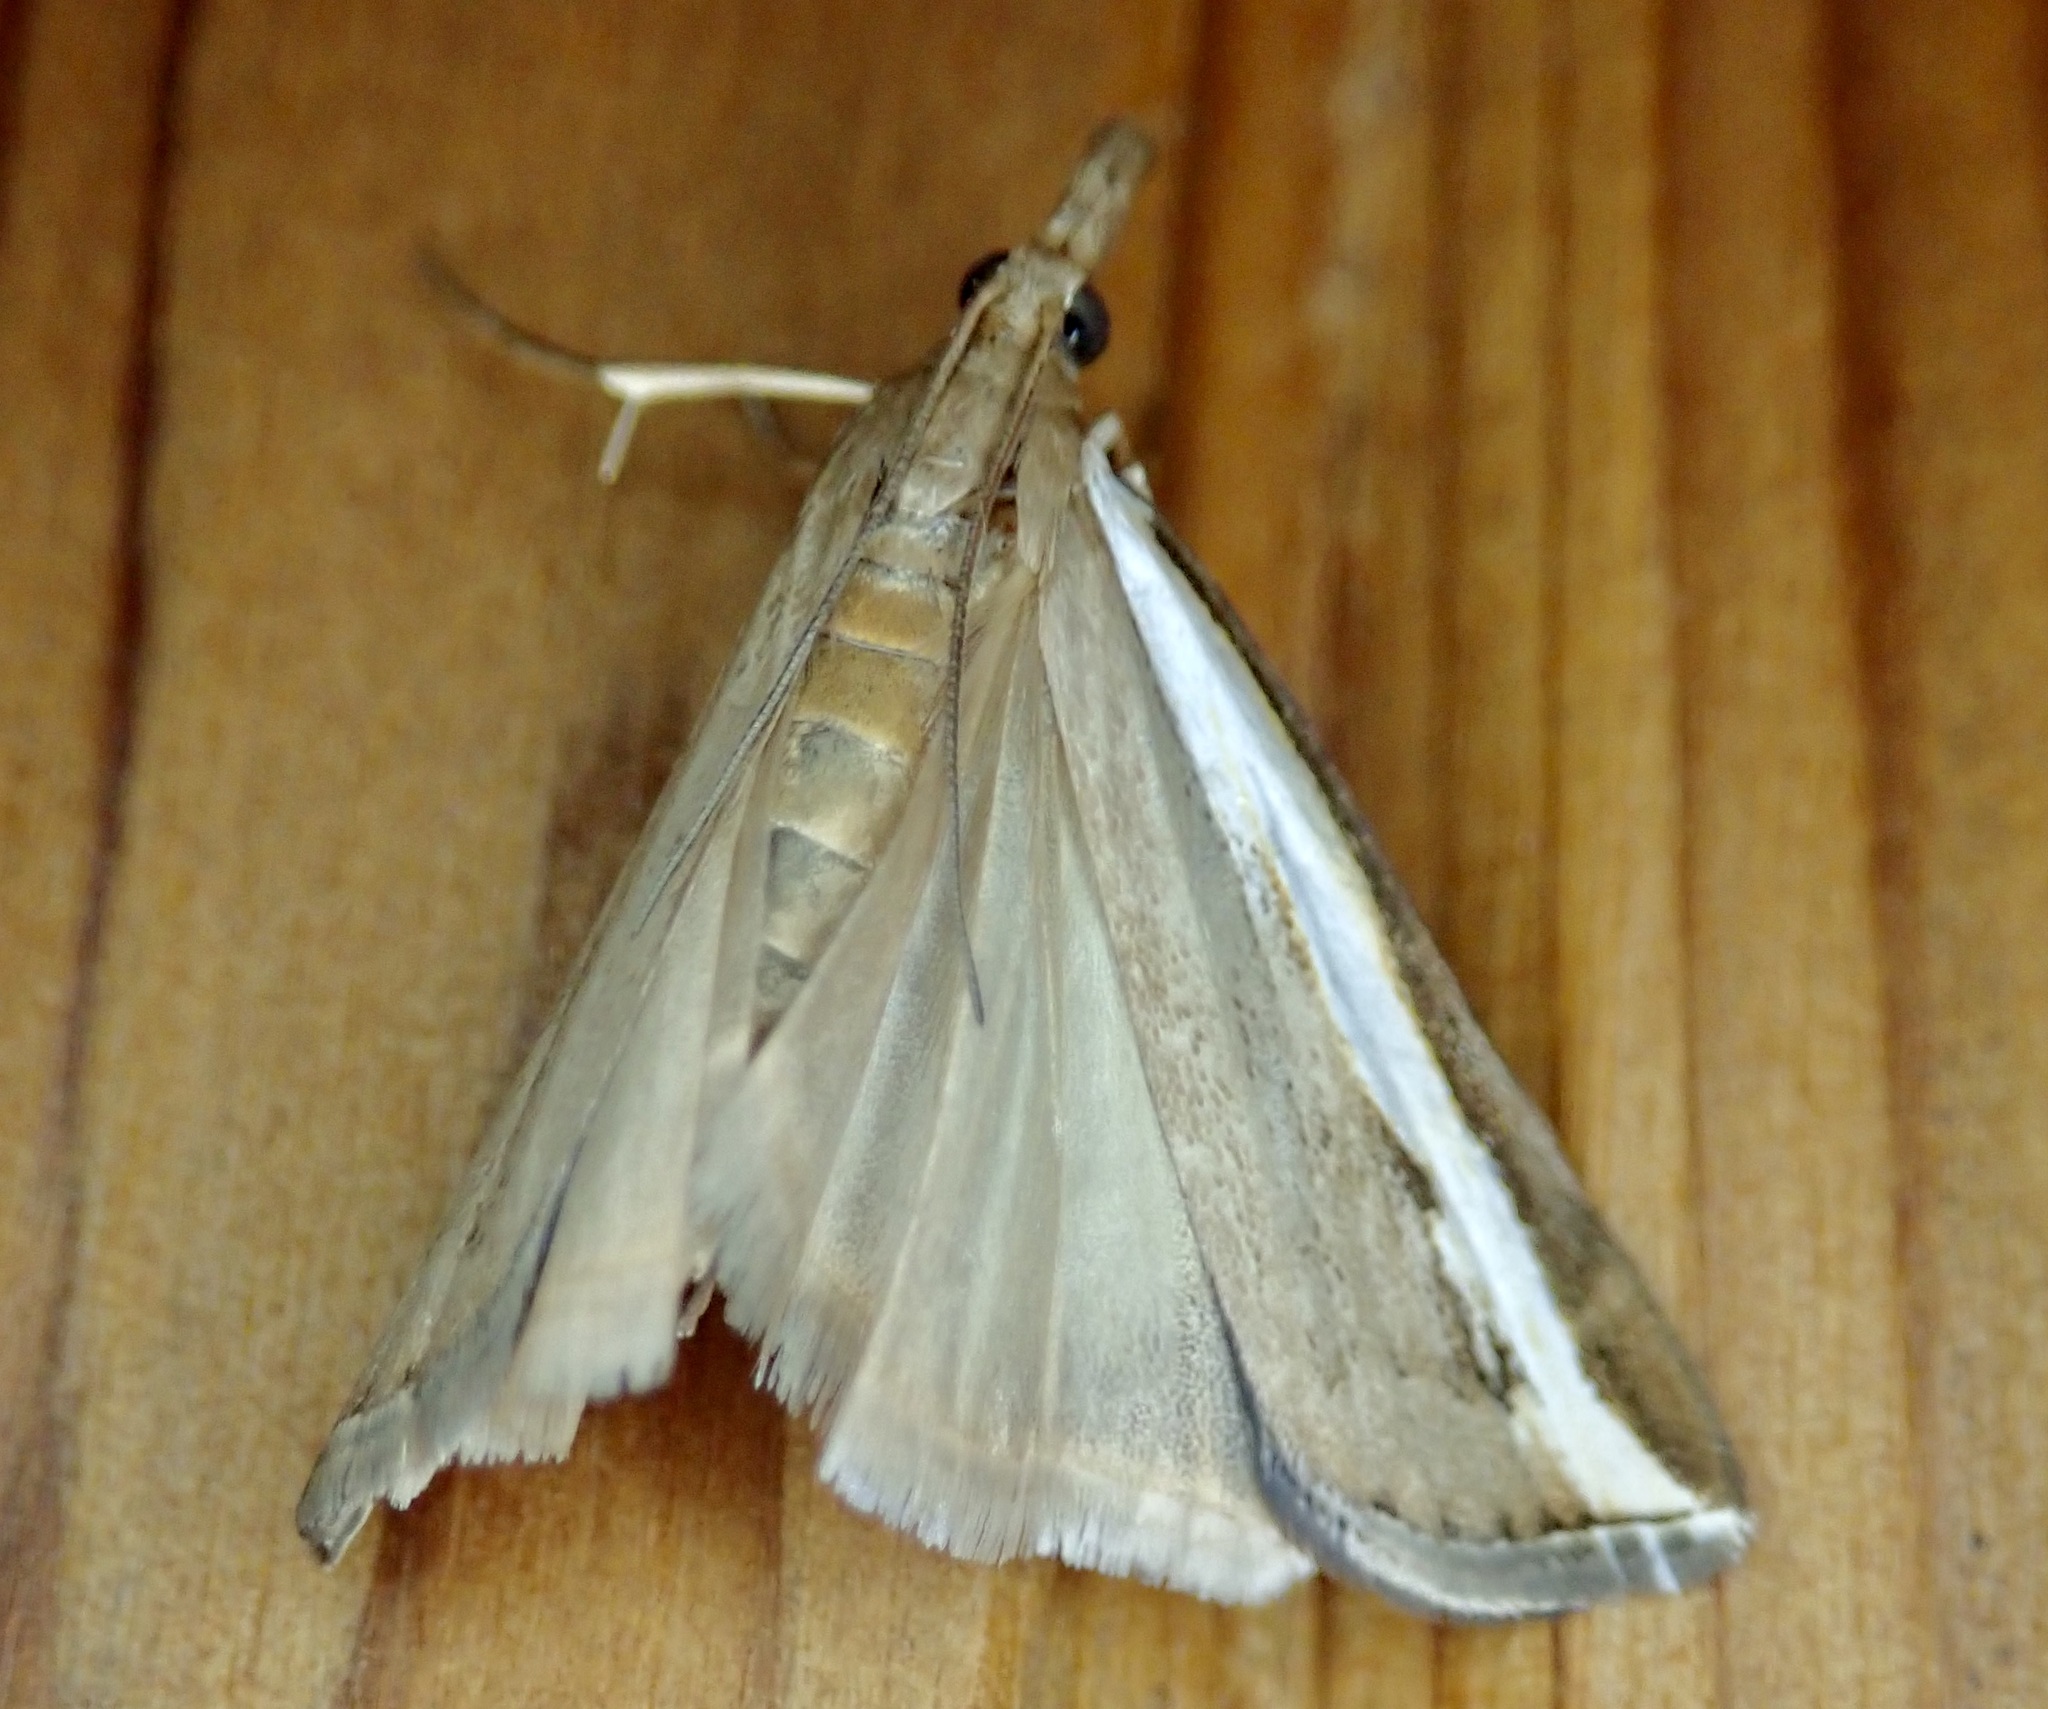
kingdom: Animalia
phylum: Arthropoda
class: Insecta
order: Lepidoptera
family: Crambidae
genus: Orocrambus
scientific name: Orocrambus flexuosellus
